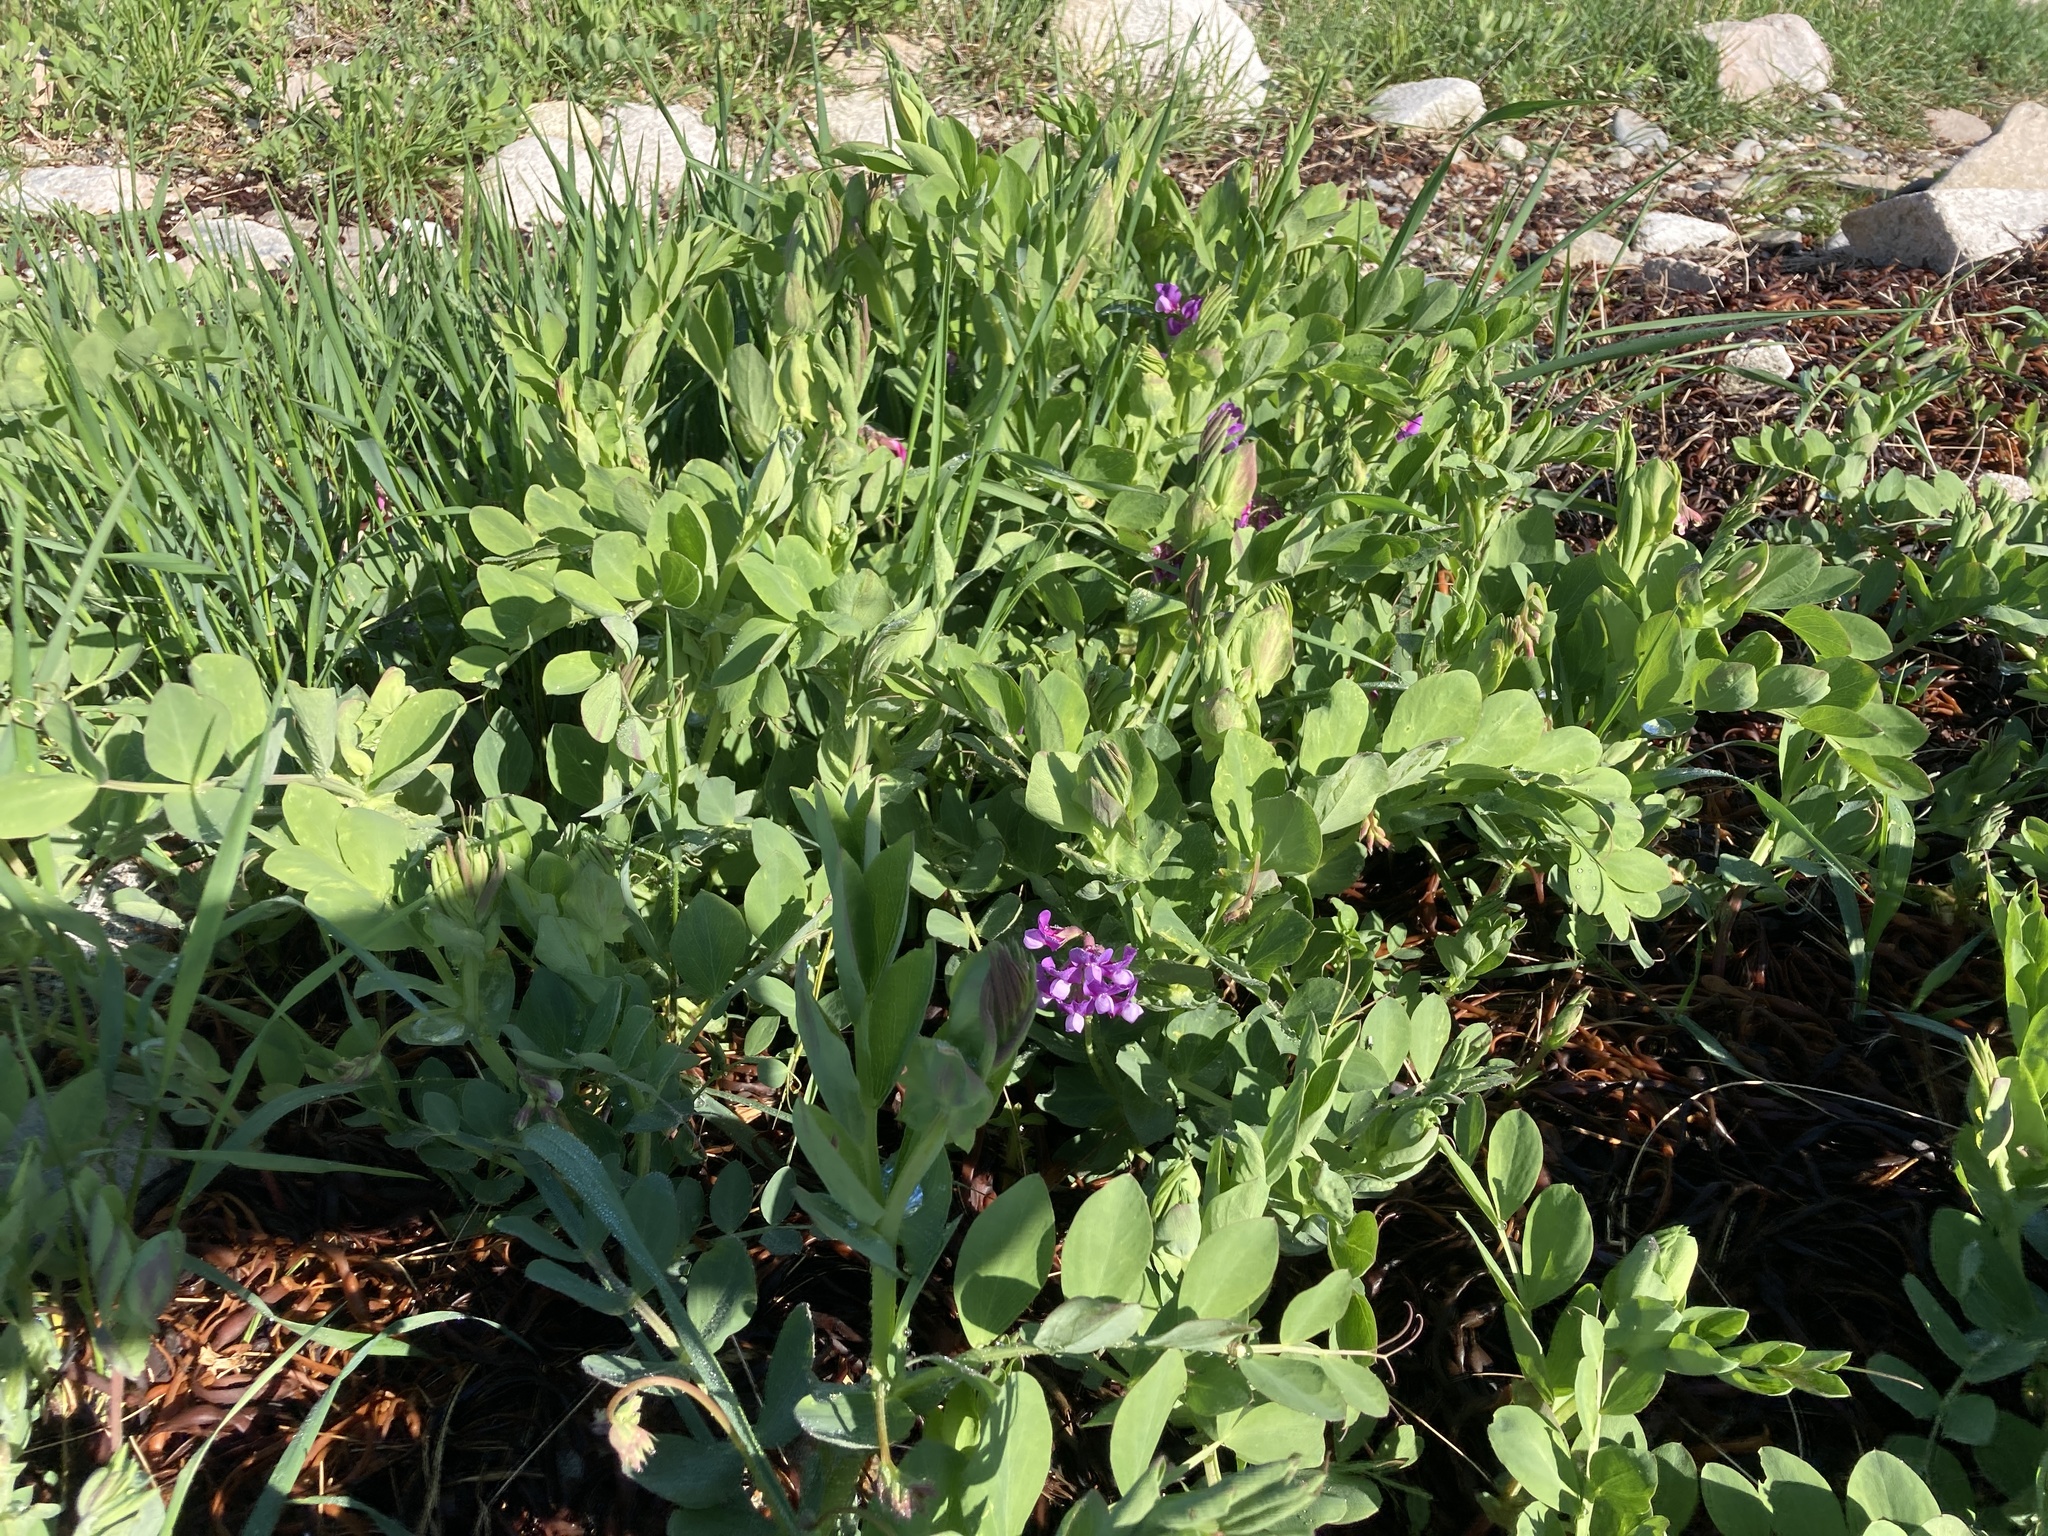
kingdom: Plantae
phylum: Tracheophyta
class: Magnoliopsida
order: Fabales
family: Fabaceae
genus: Lathyrus
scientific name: Lathyrus japonicus
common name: Sea pea
